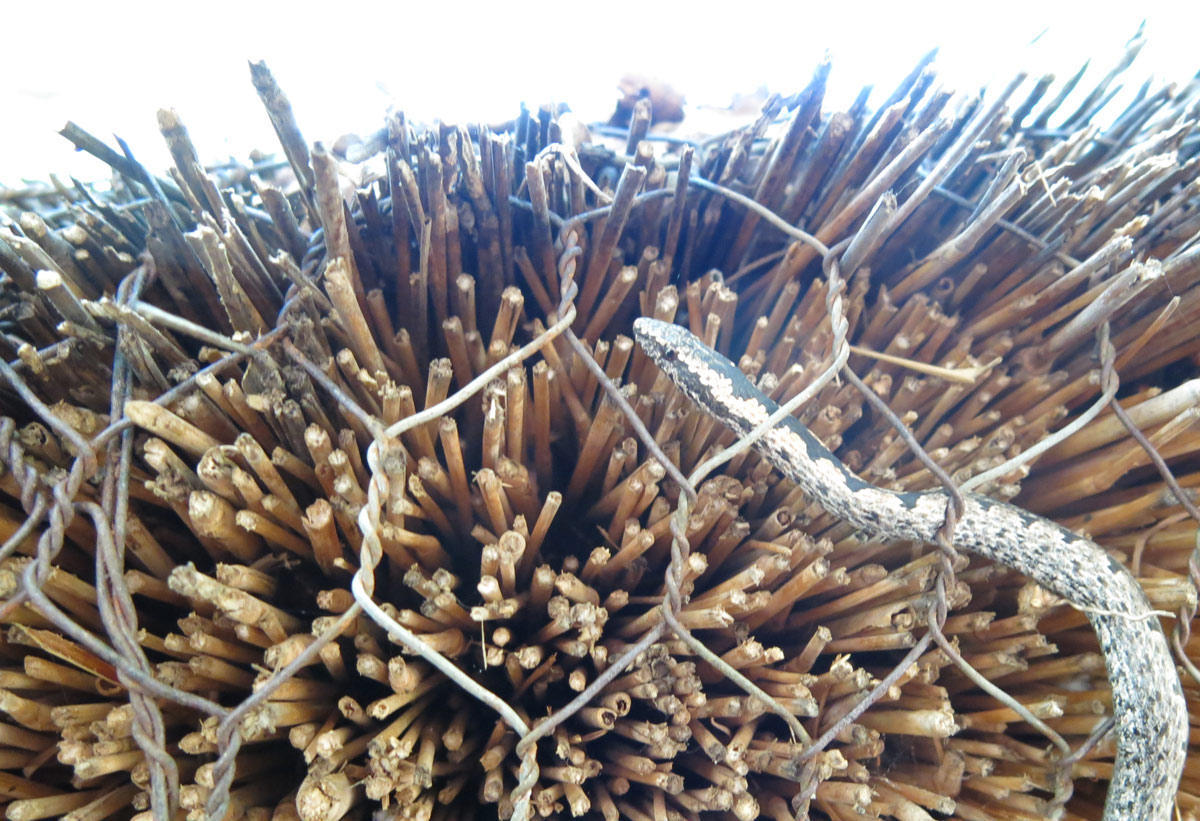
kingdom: Animalia
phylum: Chordata
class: Squamata
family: Psammophiidae
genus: Hemirhagerrhis
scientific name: Hemirhagerrhis nototaenia
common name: Mopane snake
